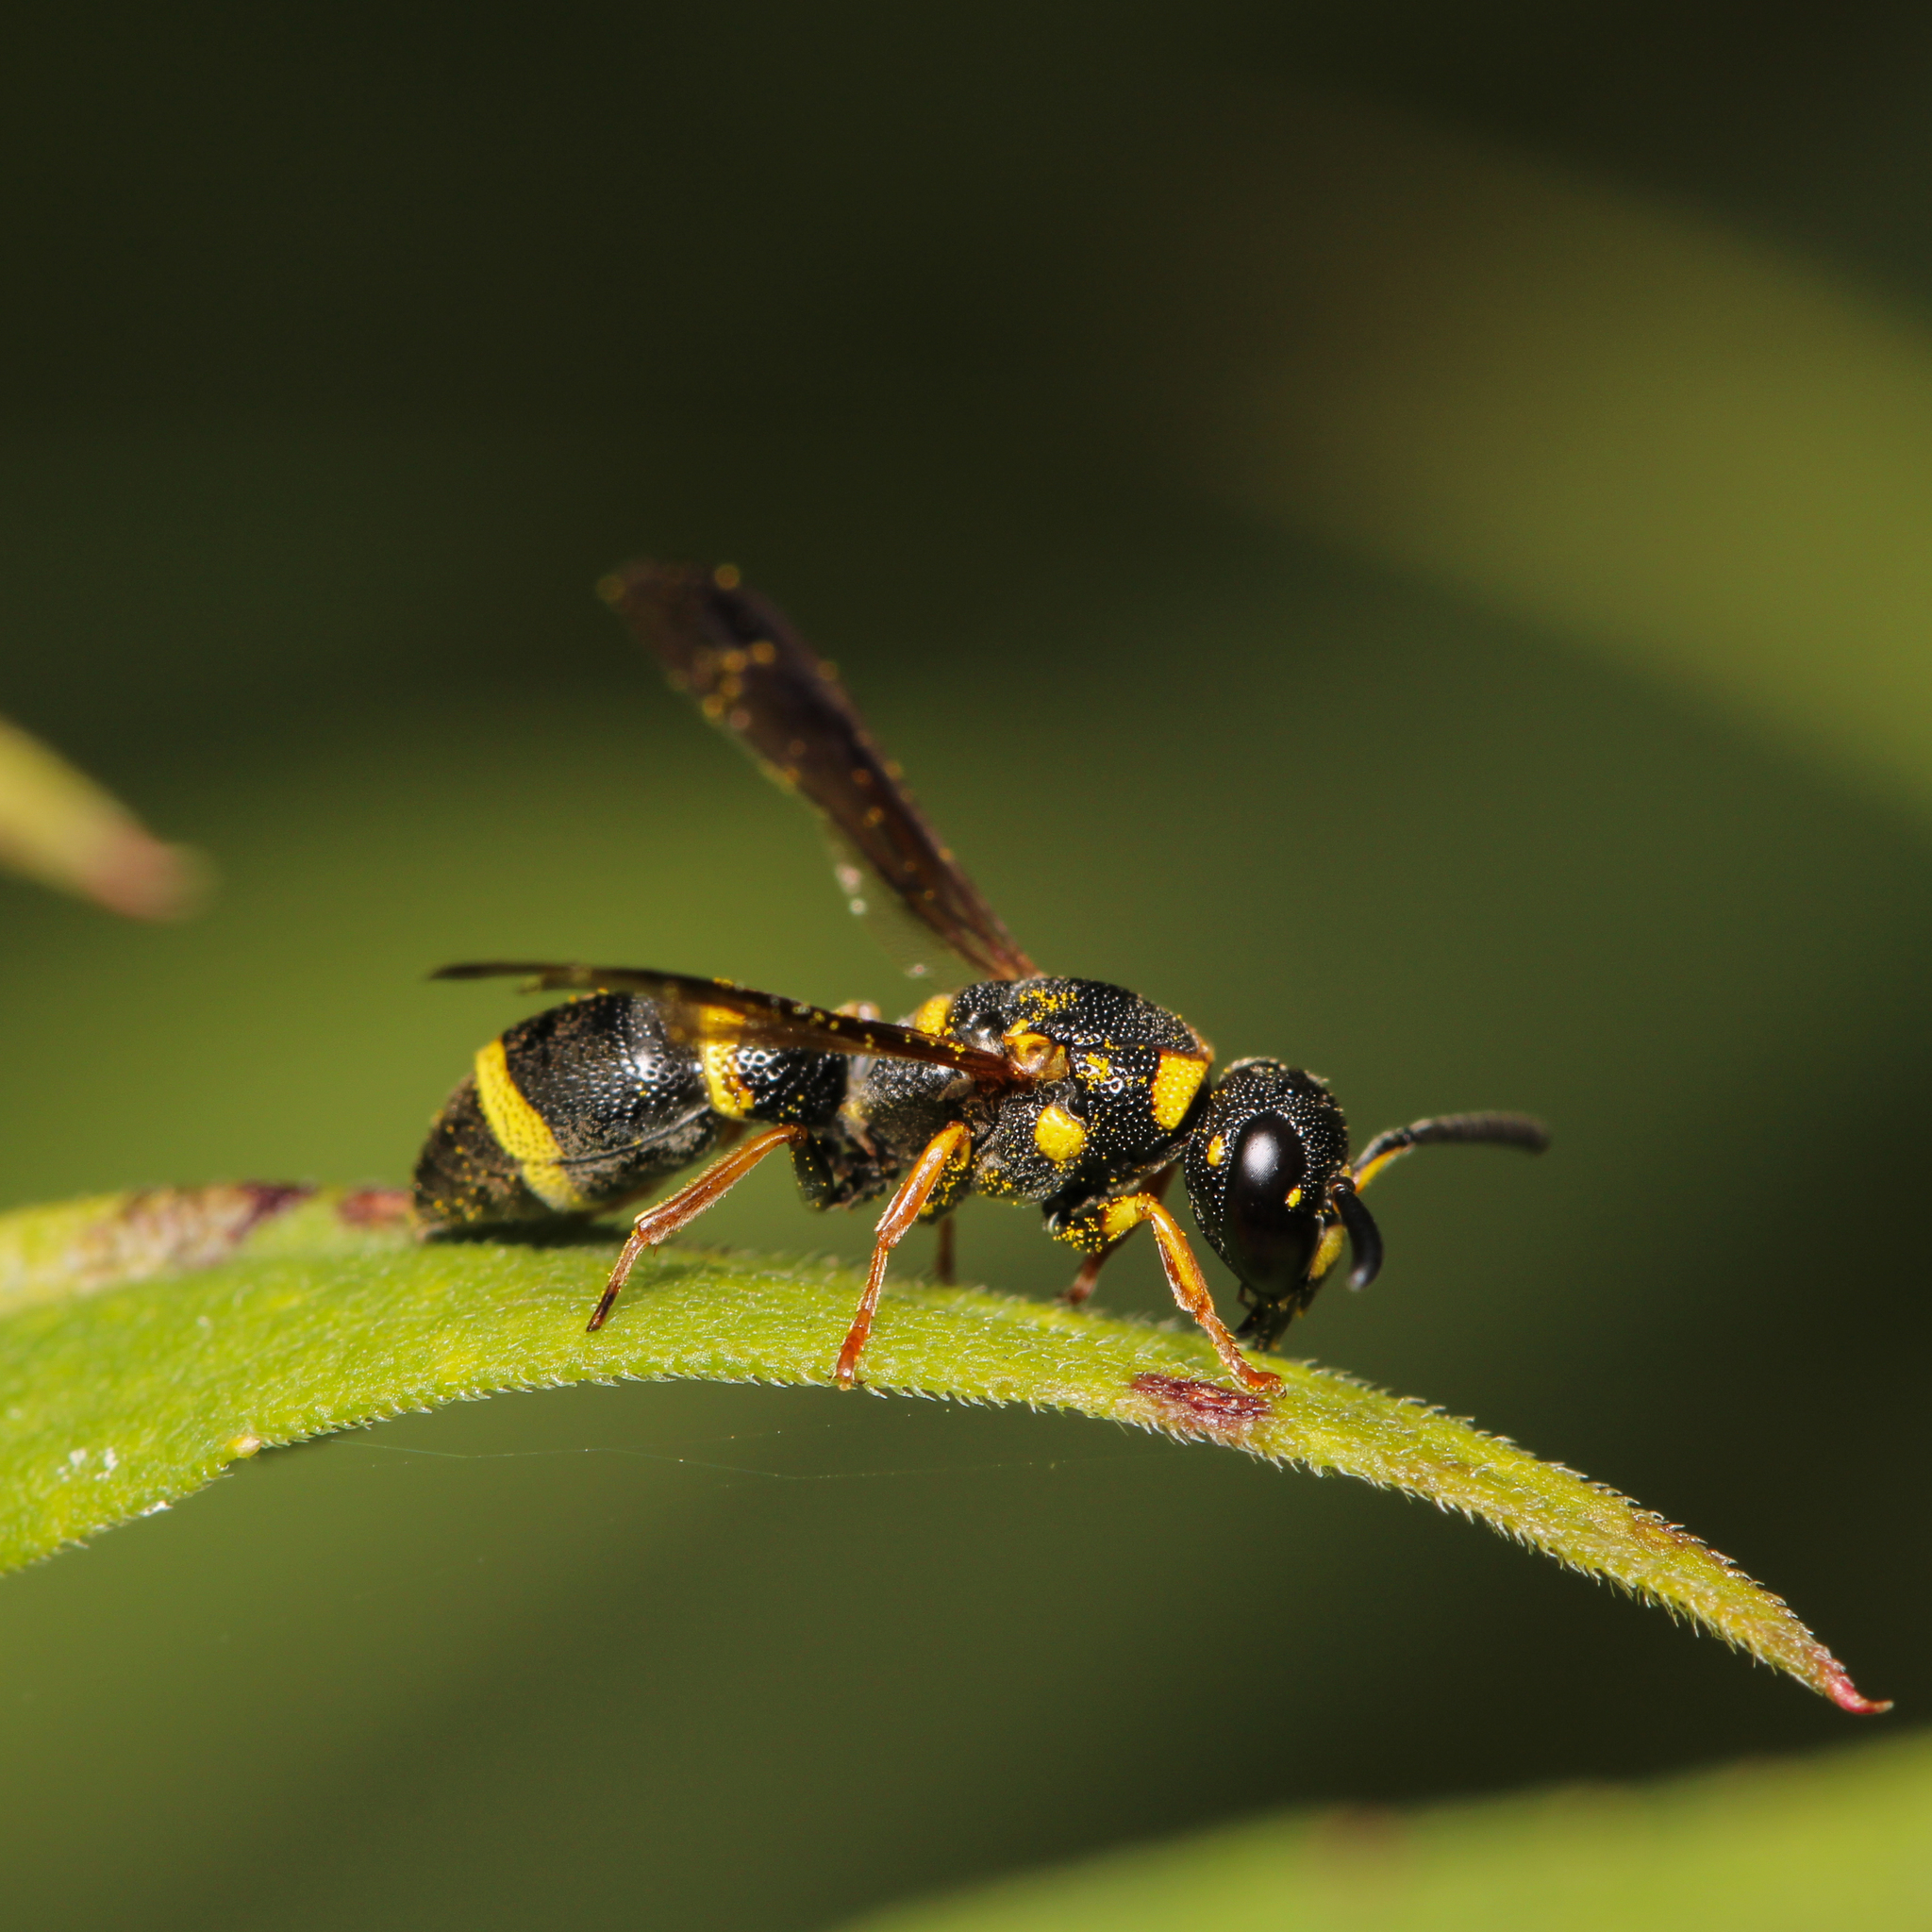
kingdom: Animalia
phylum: Arthropoda
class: Insecta
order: Hymenoptera
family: Eumenidae
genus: Parancistrocerus
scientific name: Parancistrocerus perennis
